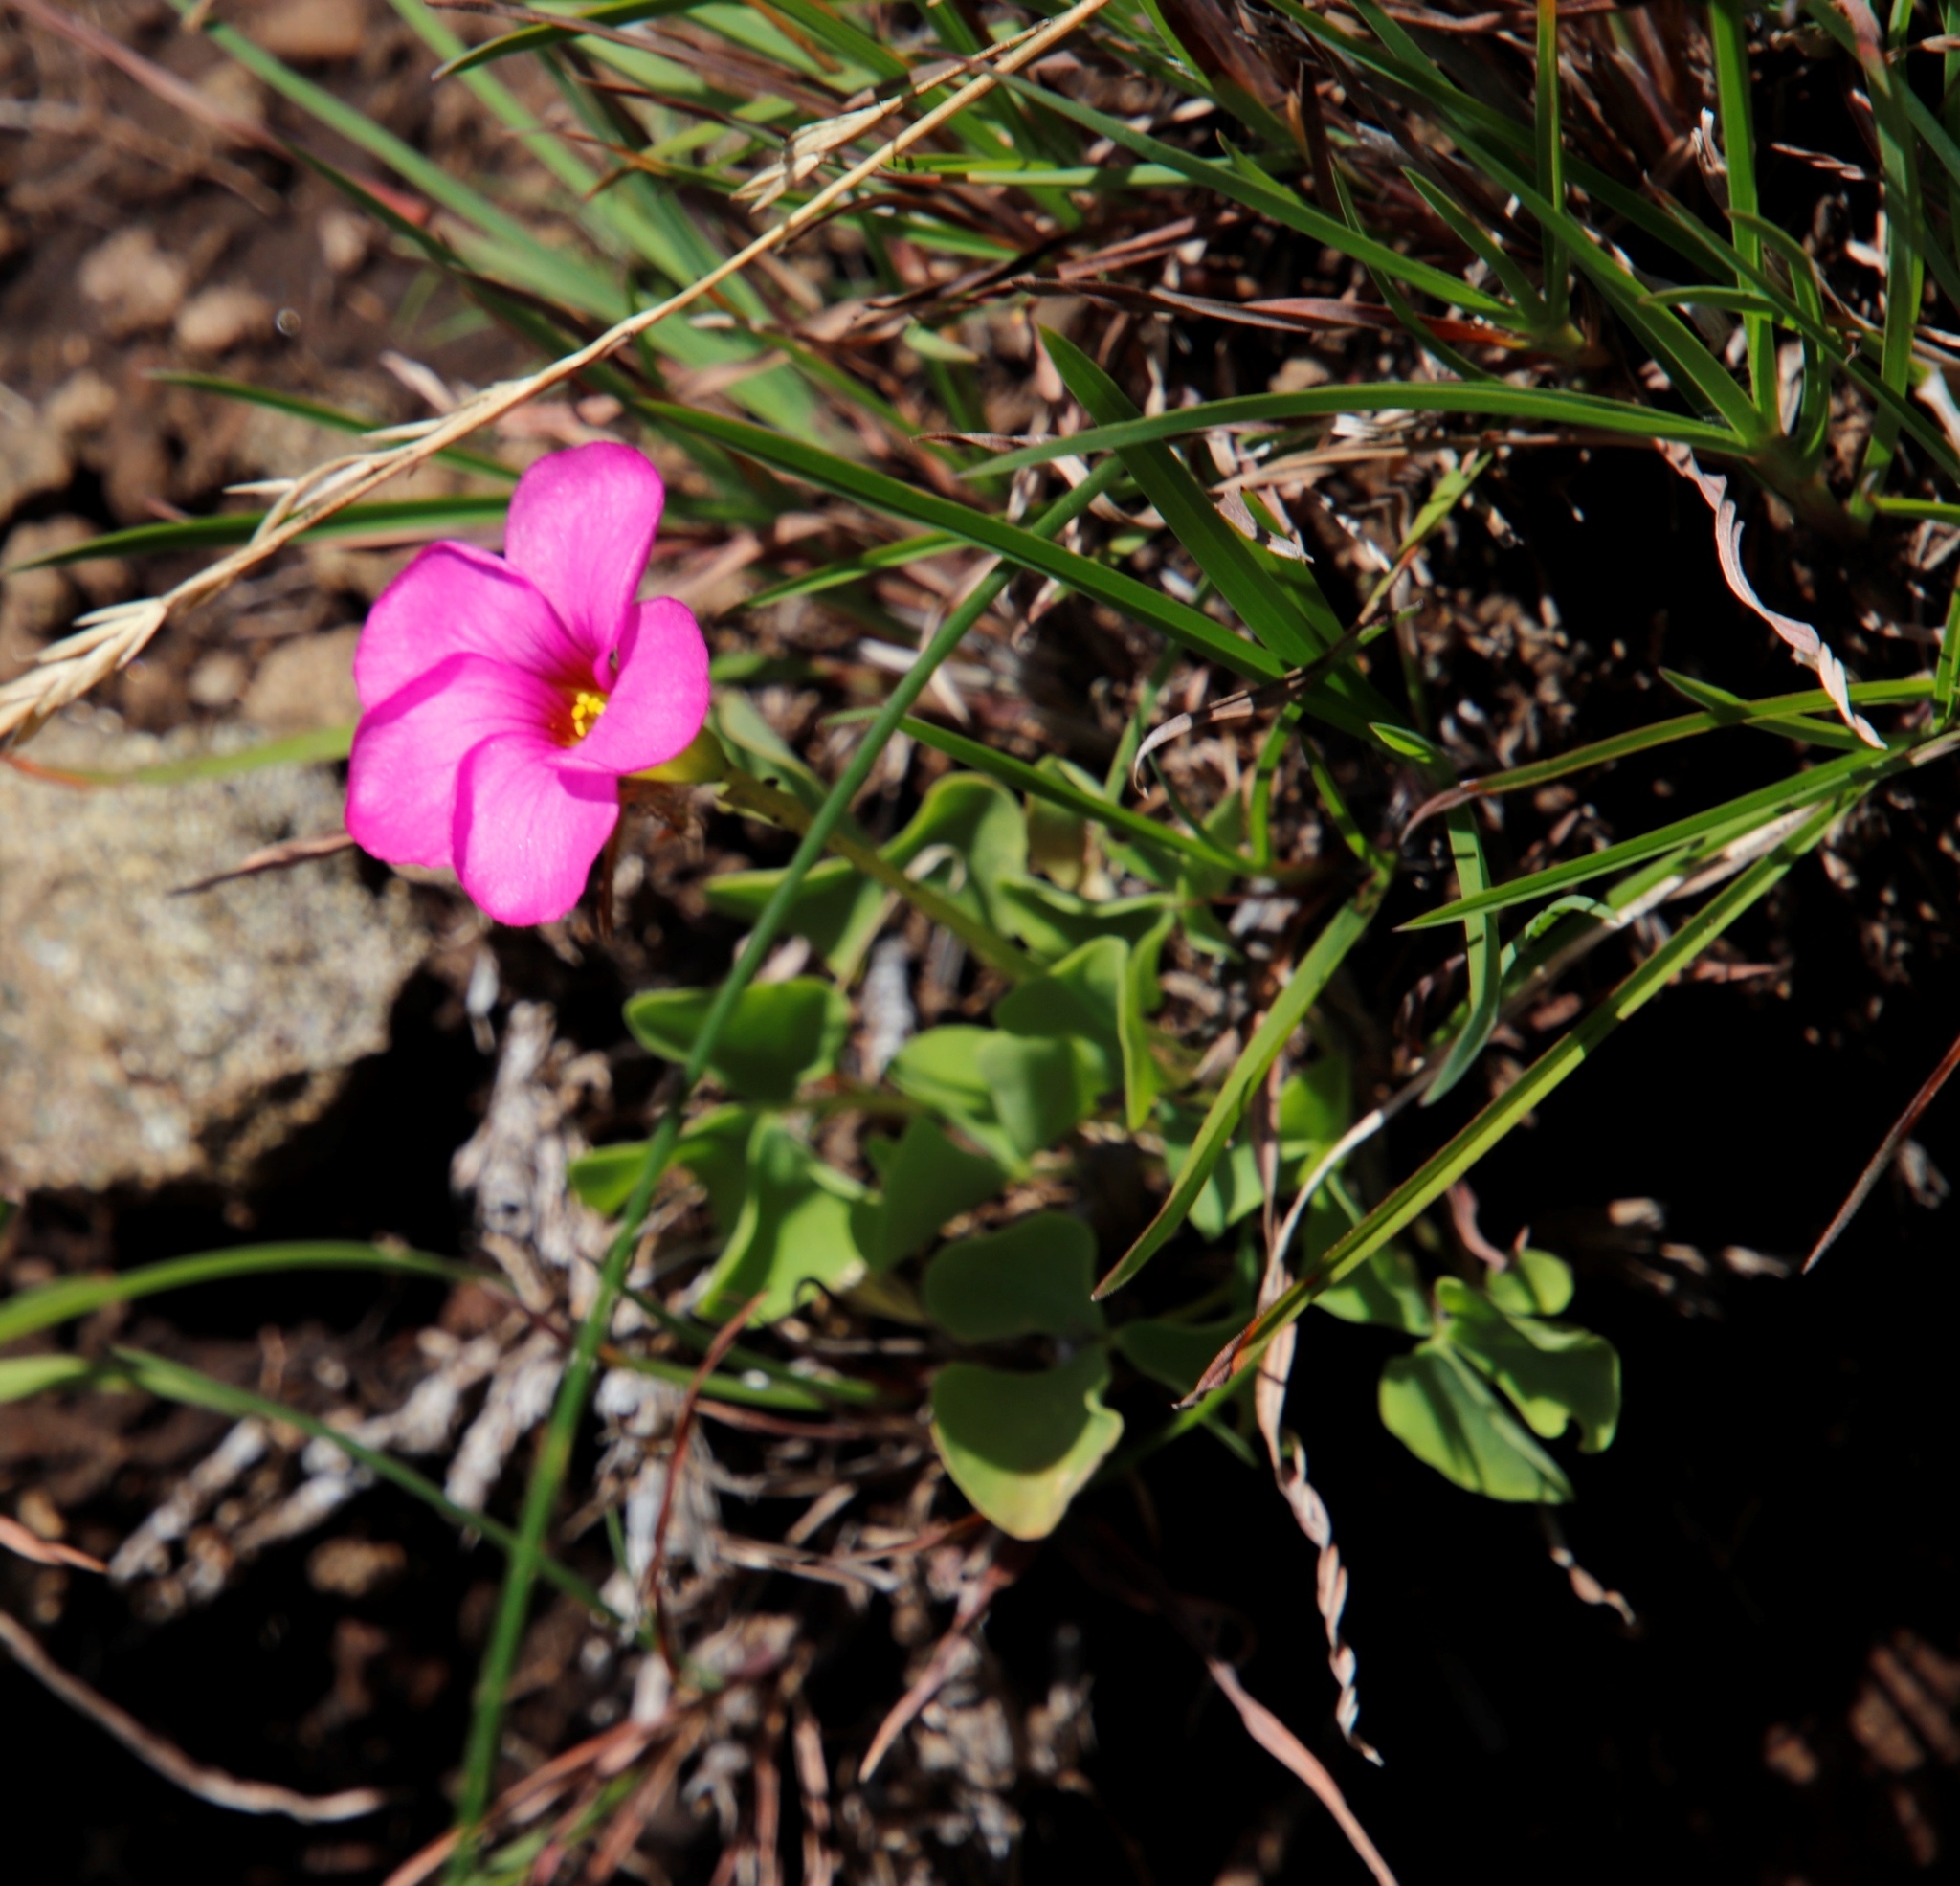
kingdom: Plantae
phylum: Tracheophyta
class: Magnoliopsida
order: Oxalidales
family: Oxalidaceae
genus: Oxalis
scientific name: Oxalis obliquifolia
